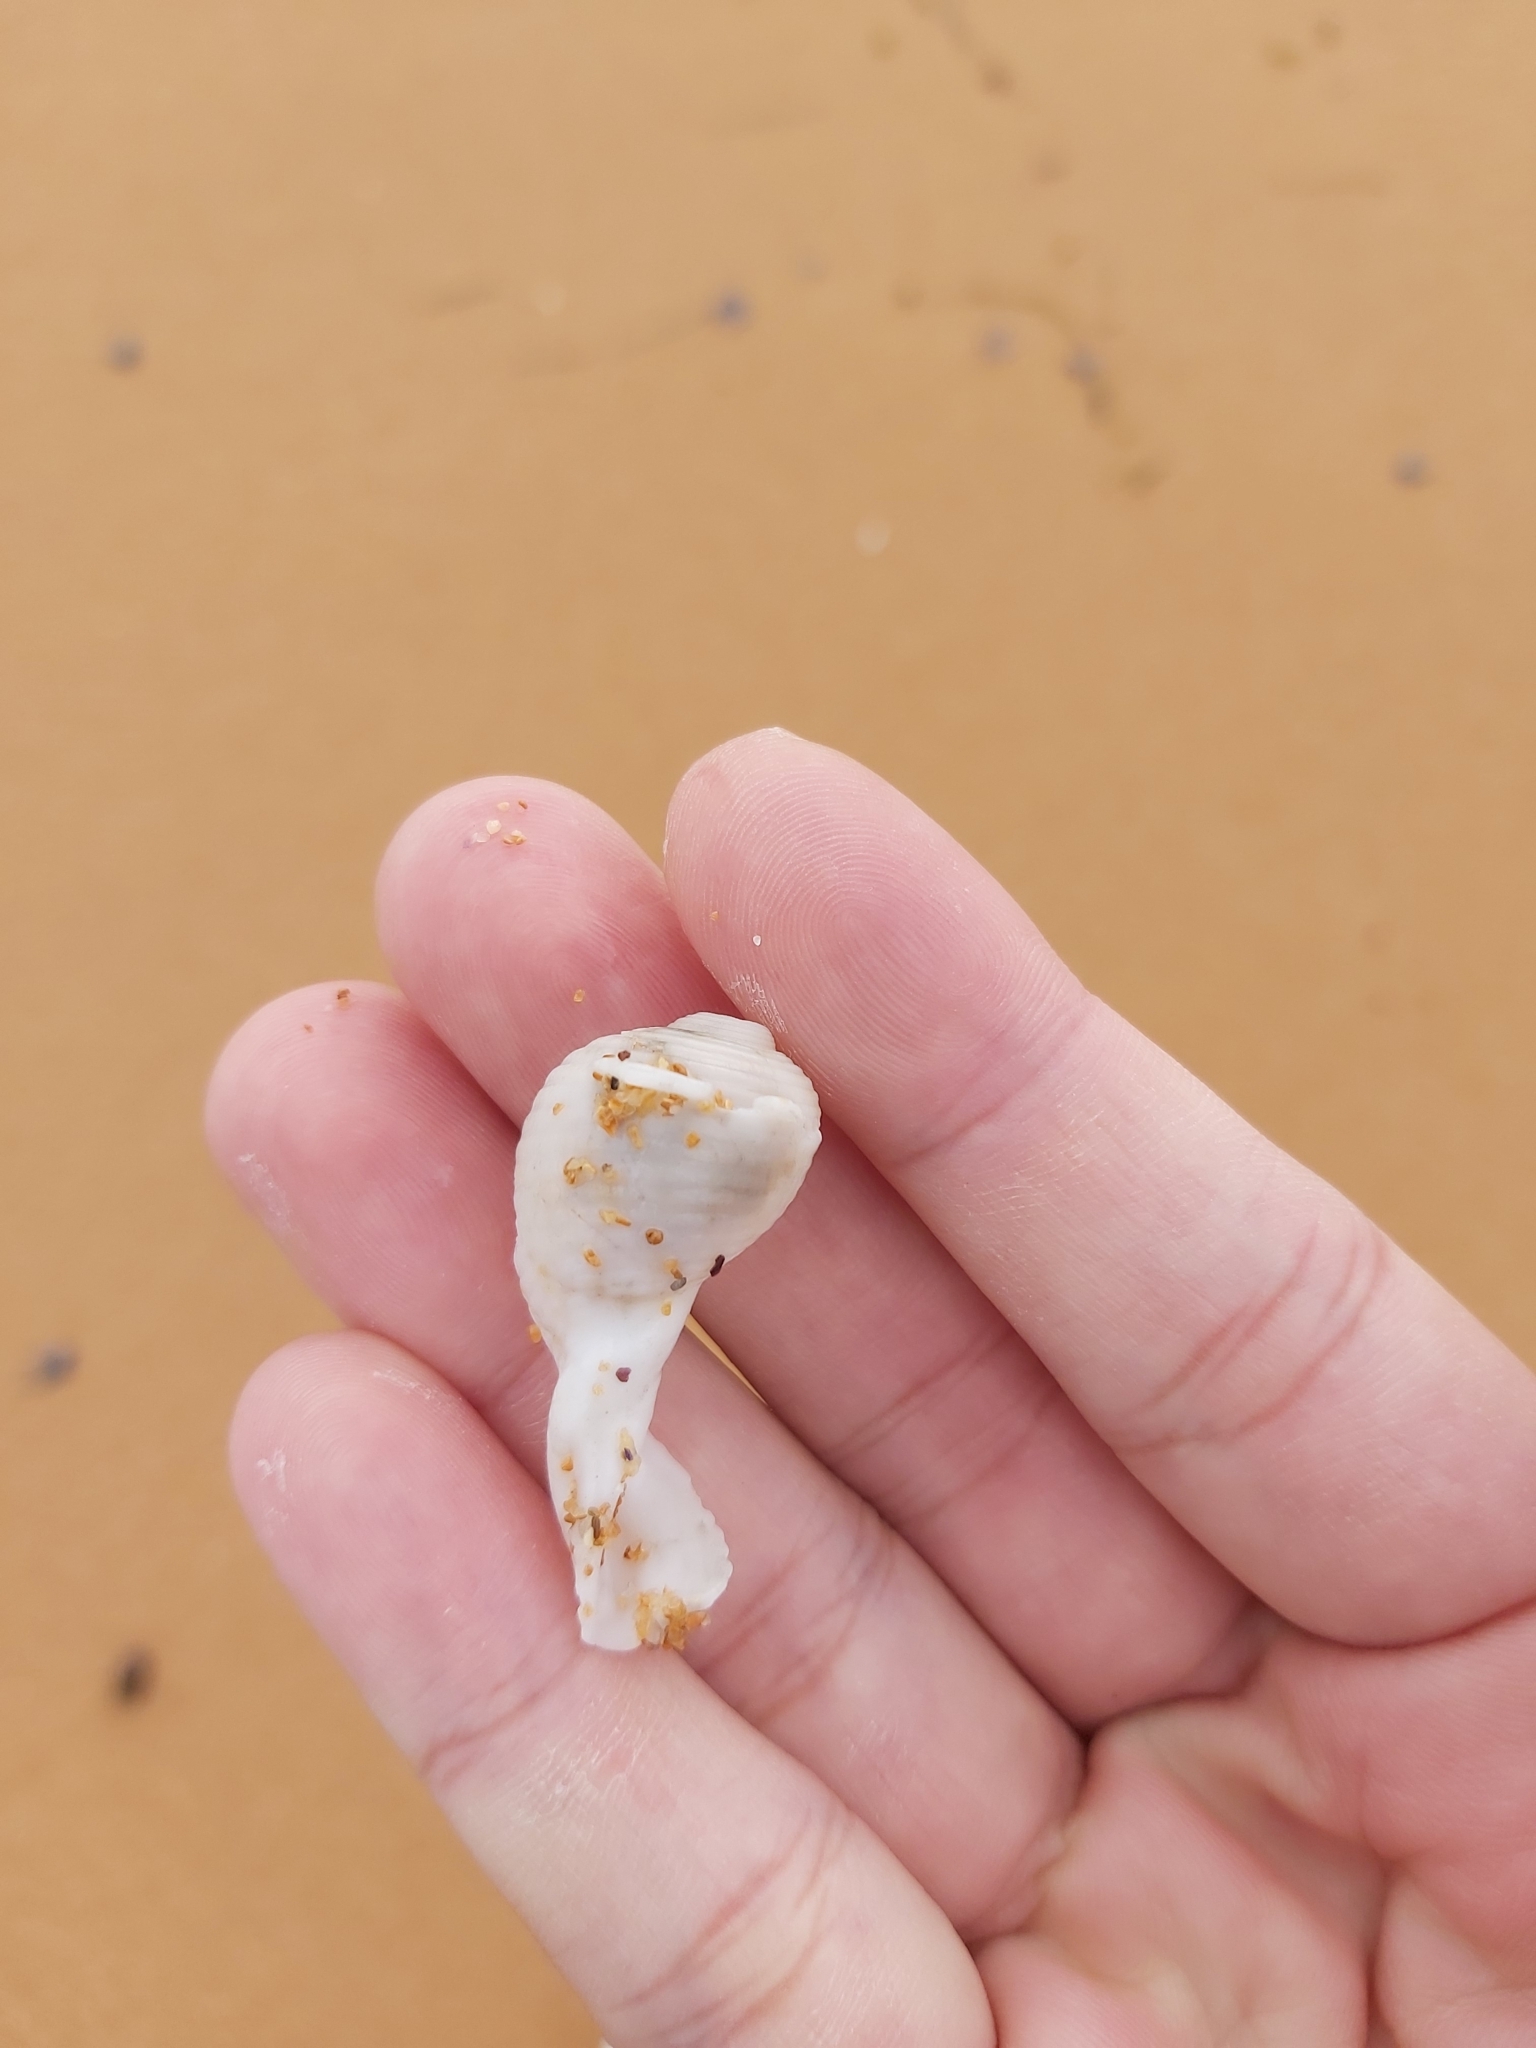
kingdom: Animalia
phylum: Mollusca
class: Gastropoda
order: Littorinimorpha
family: Tonnidae
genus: Tonna
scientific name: Tonna tankervillii
